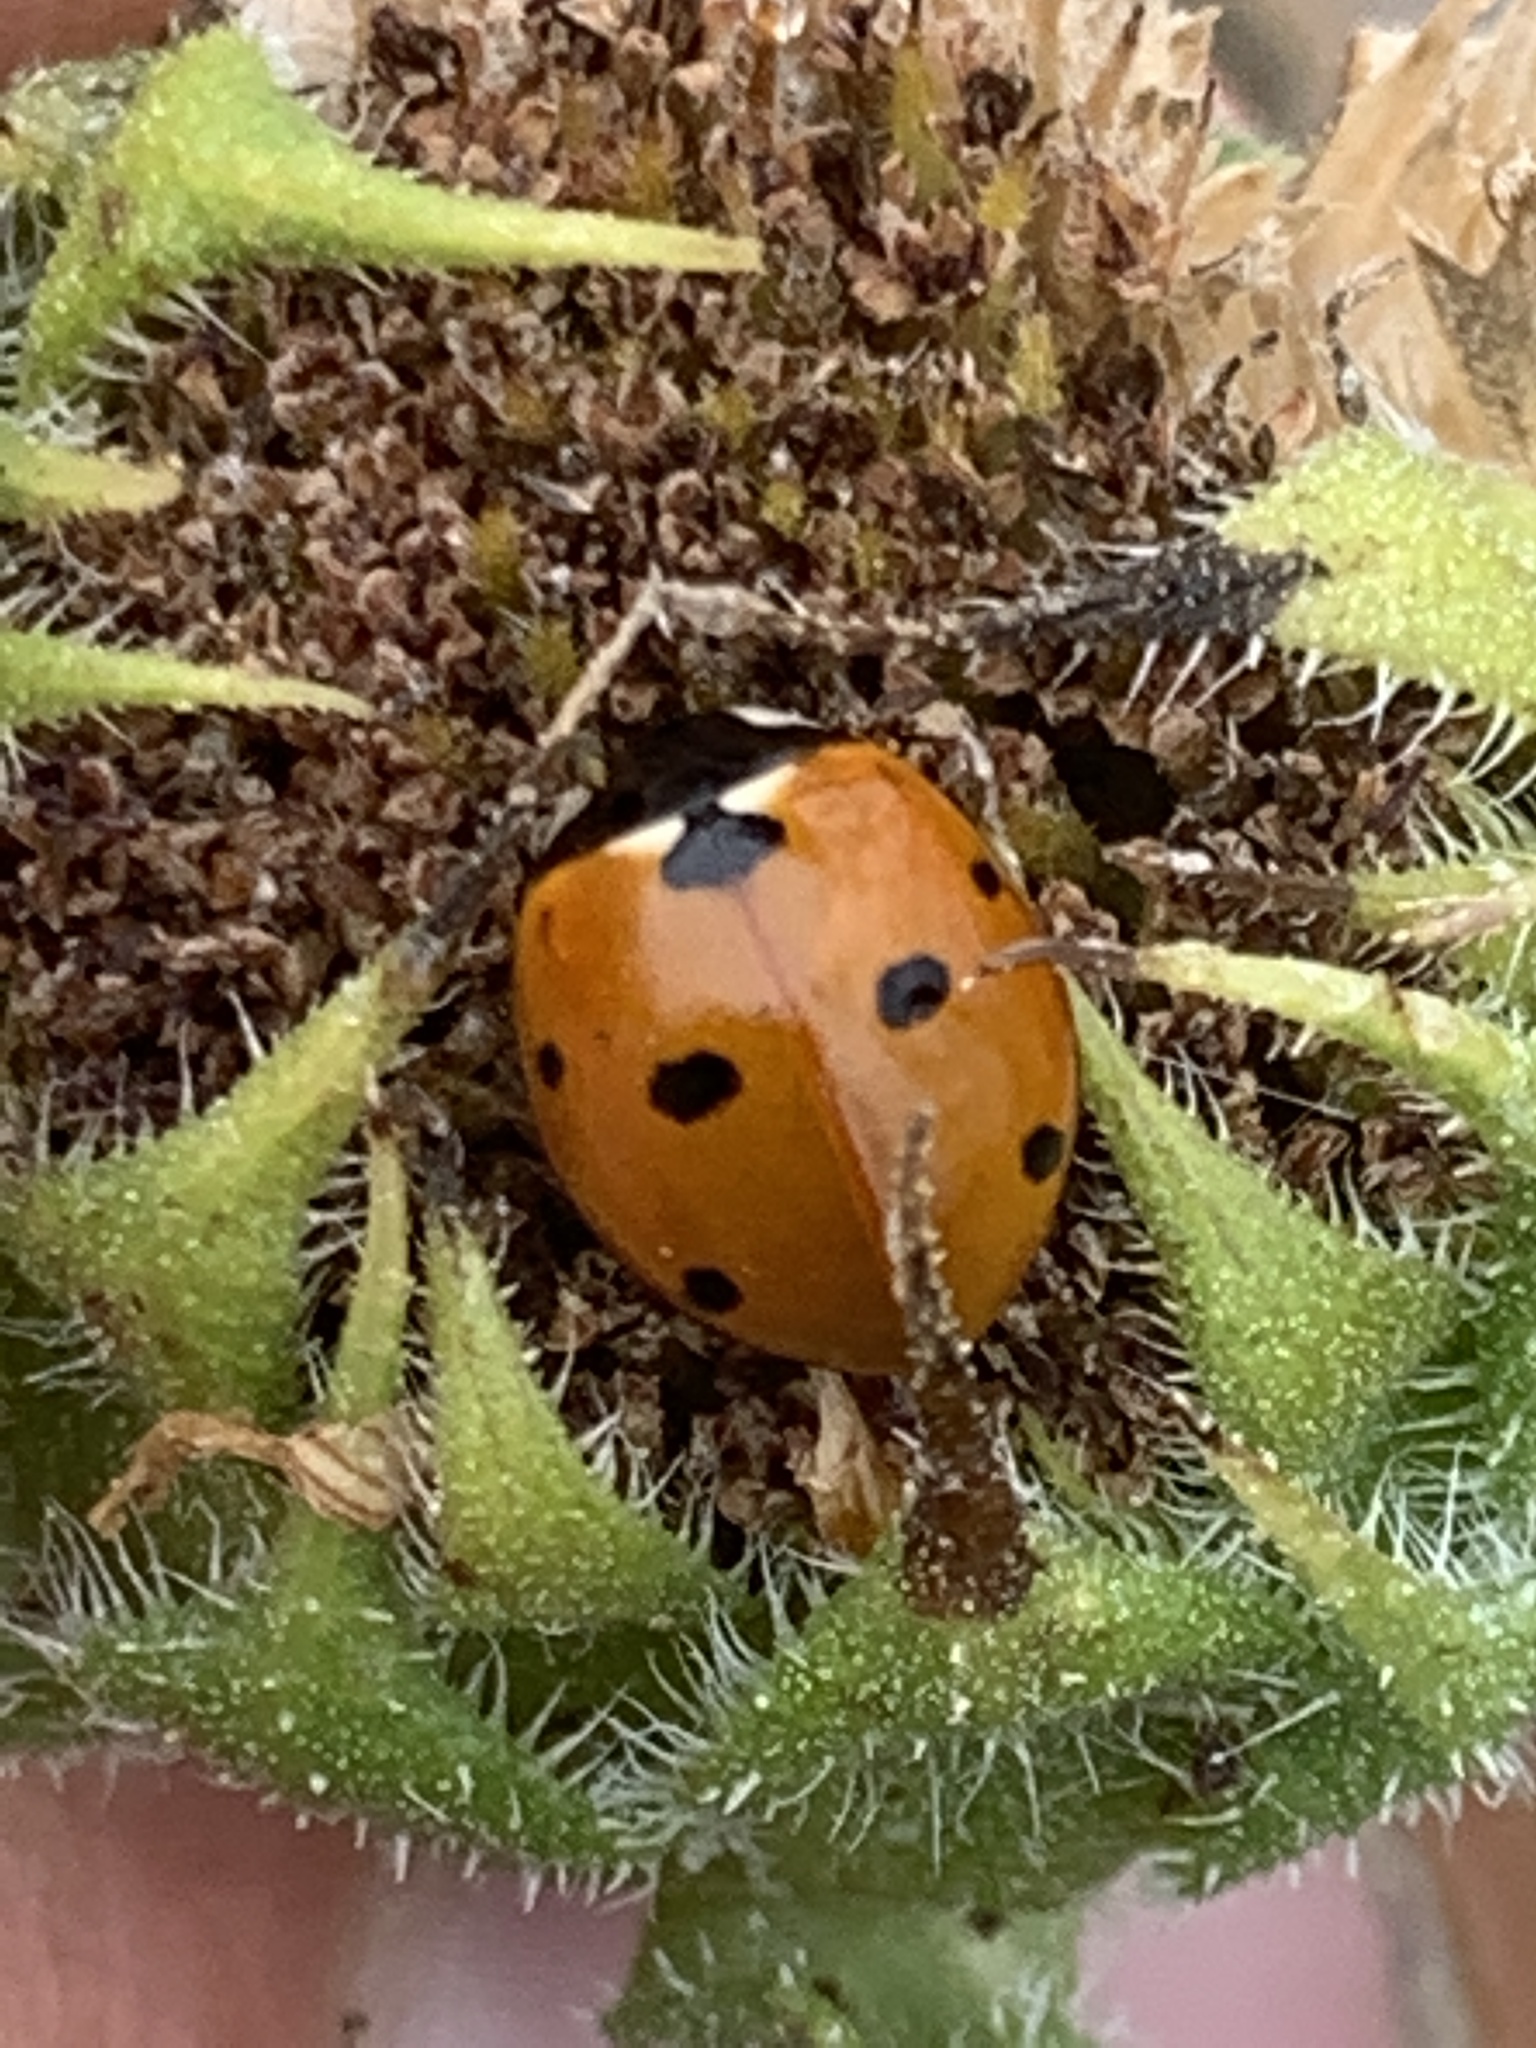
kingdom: Animalia
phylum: Arthropoda
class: Insecta
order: Coleoptera
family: Coccinellidae
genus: Coccinella
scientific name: Coccinella septempunctata
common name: Sevenspotted lady beetle
